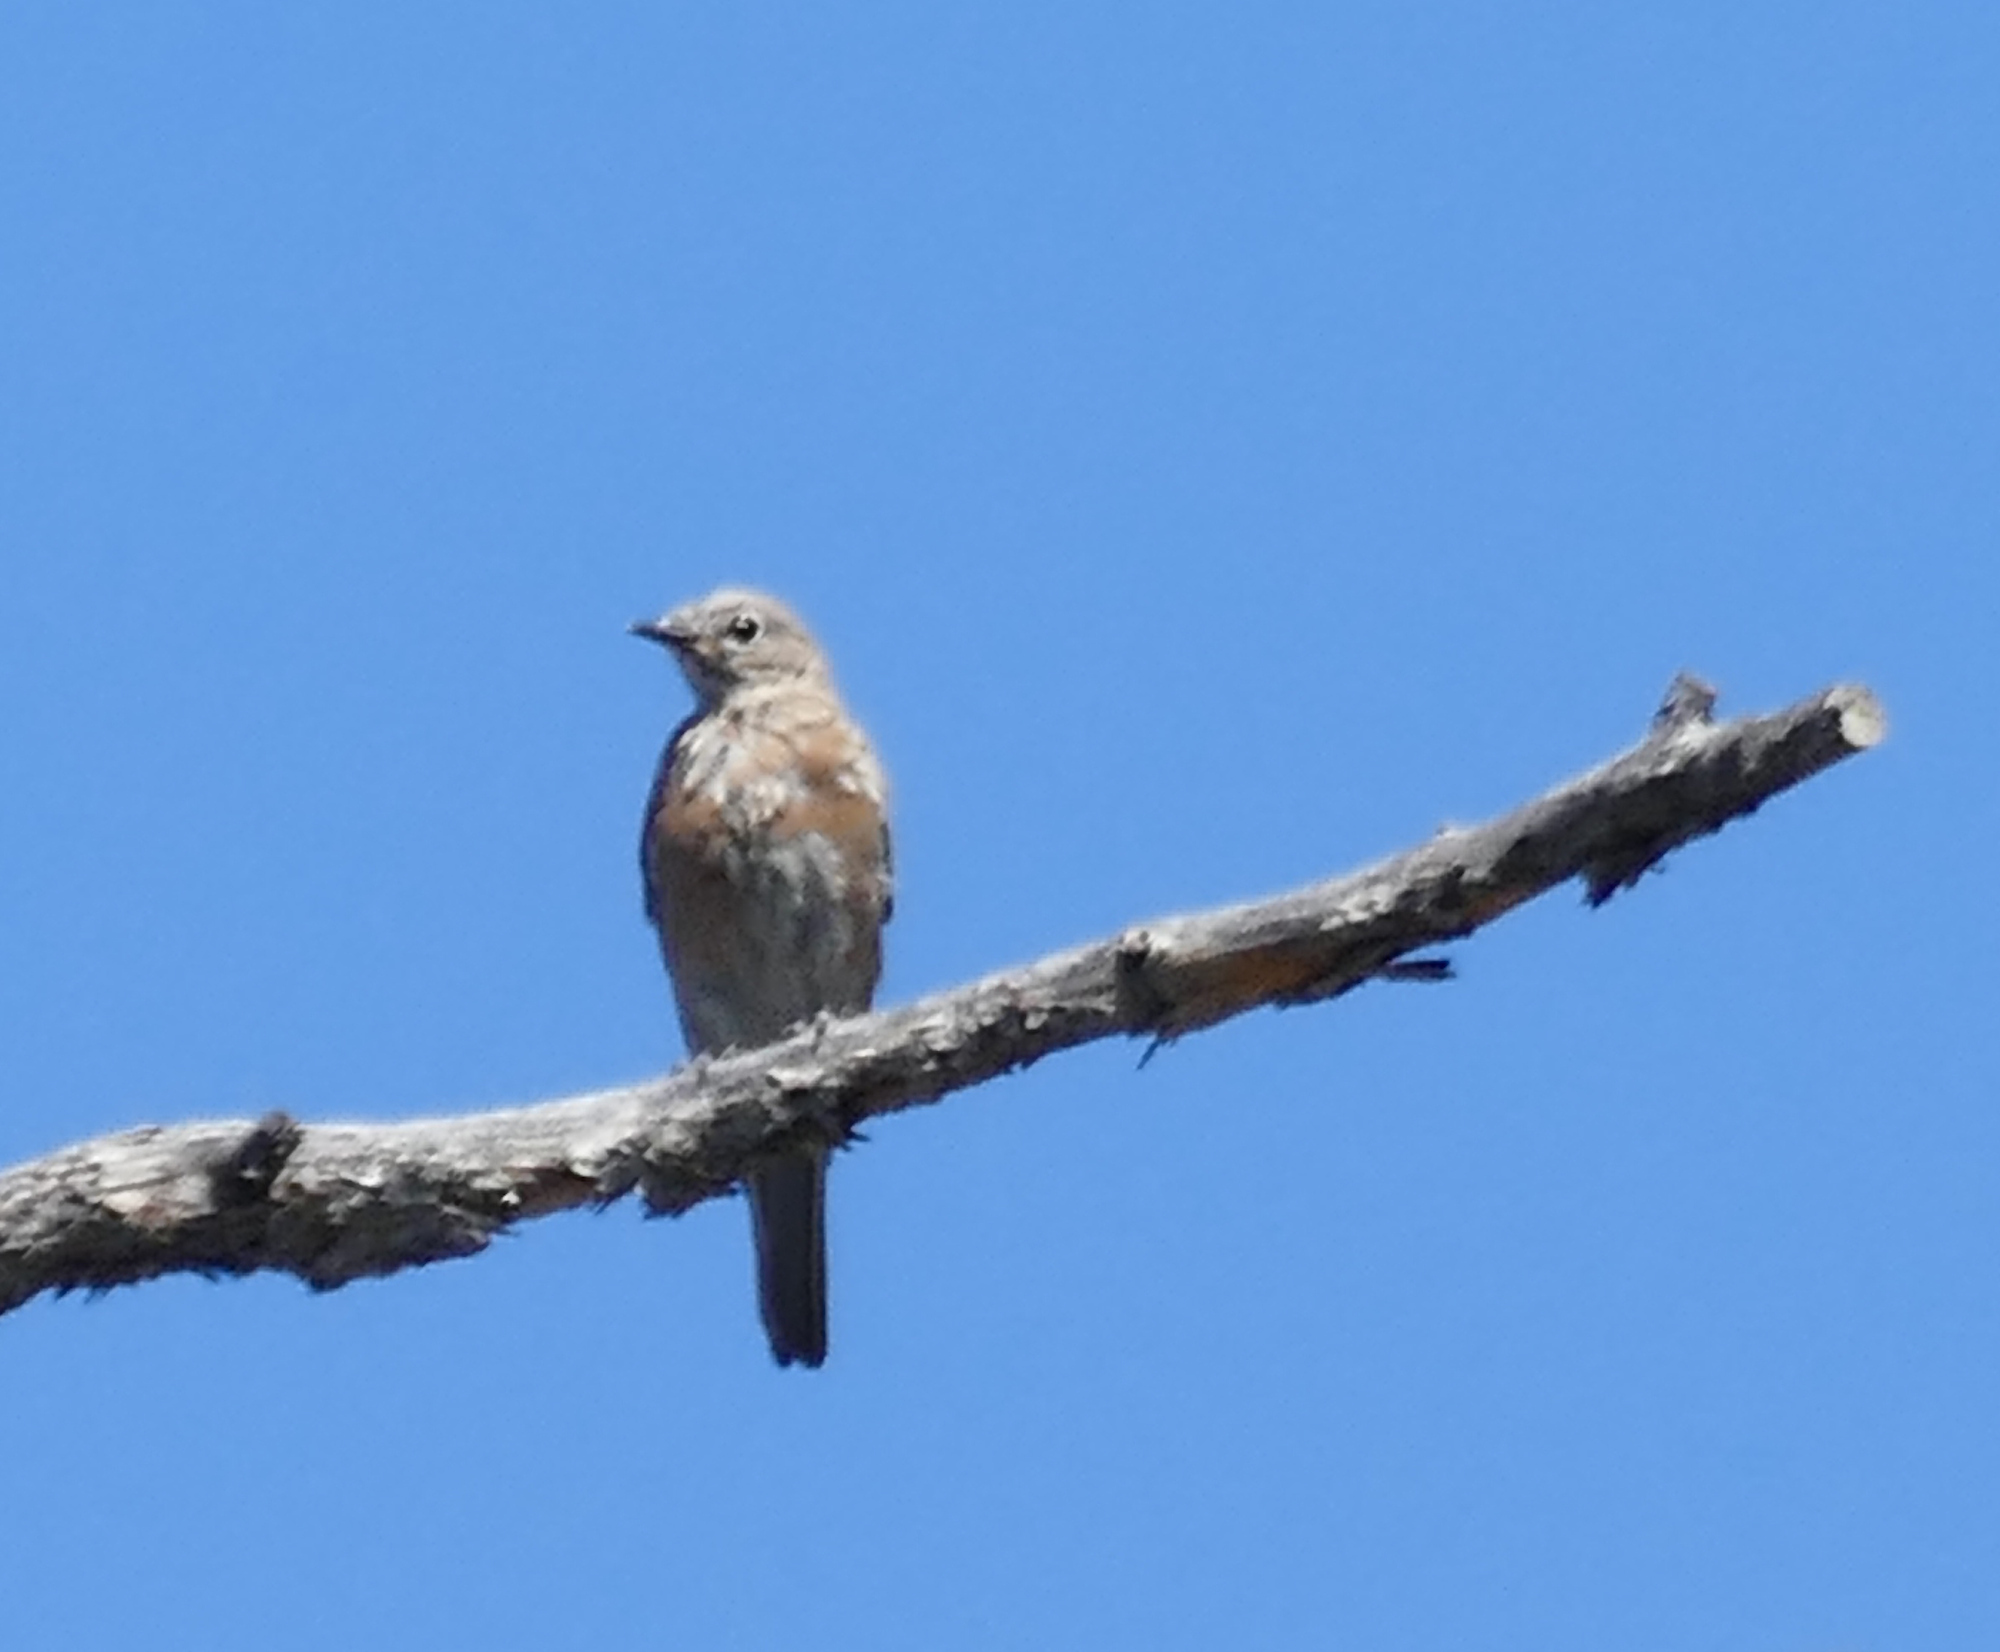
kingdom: Animalia
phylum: Chordata
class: Aves
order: Passeriformes
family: Turdidae
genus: Sialia
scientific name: Sialia mexicana
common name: Western bluebird
